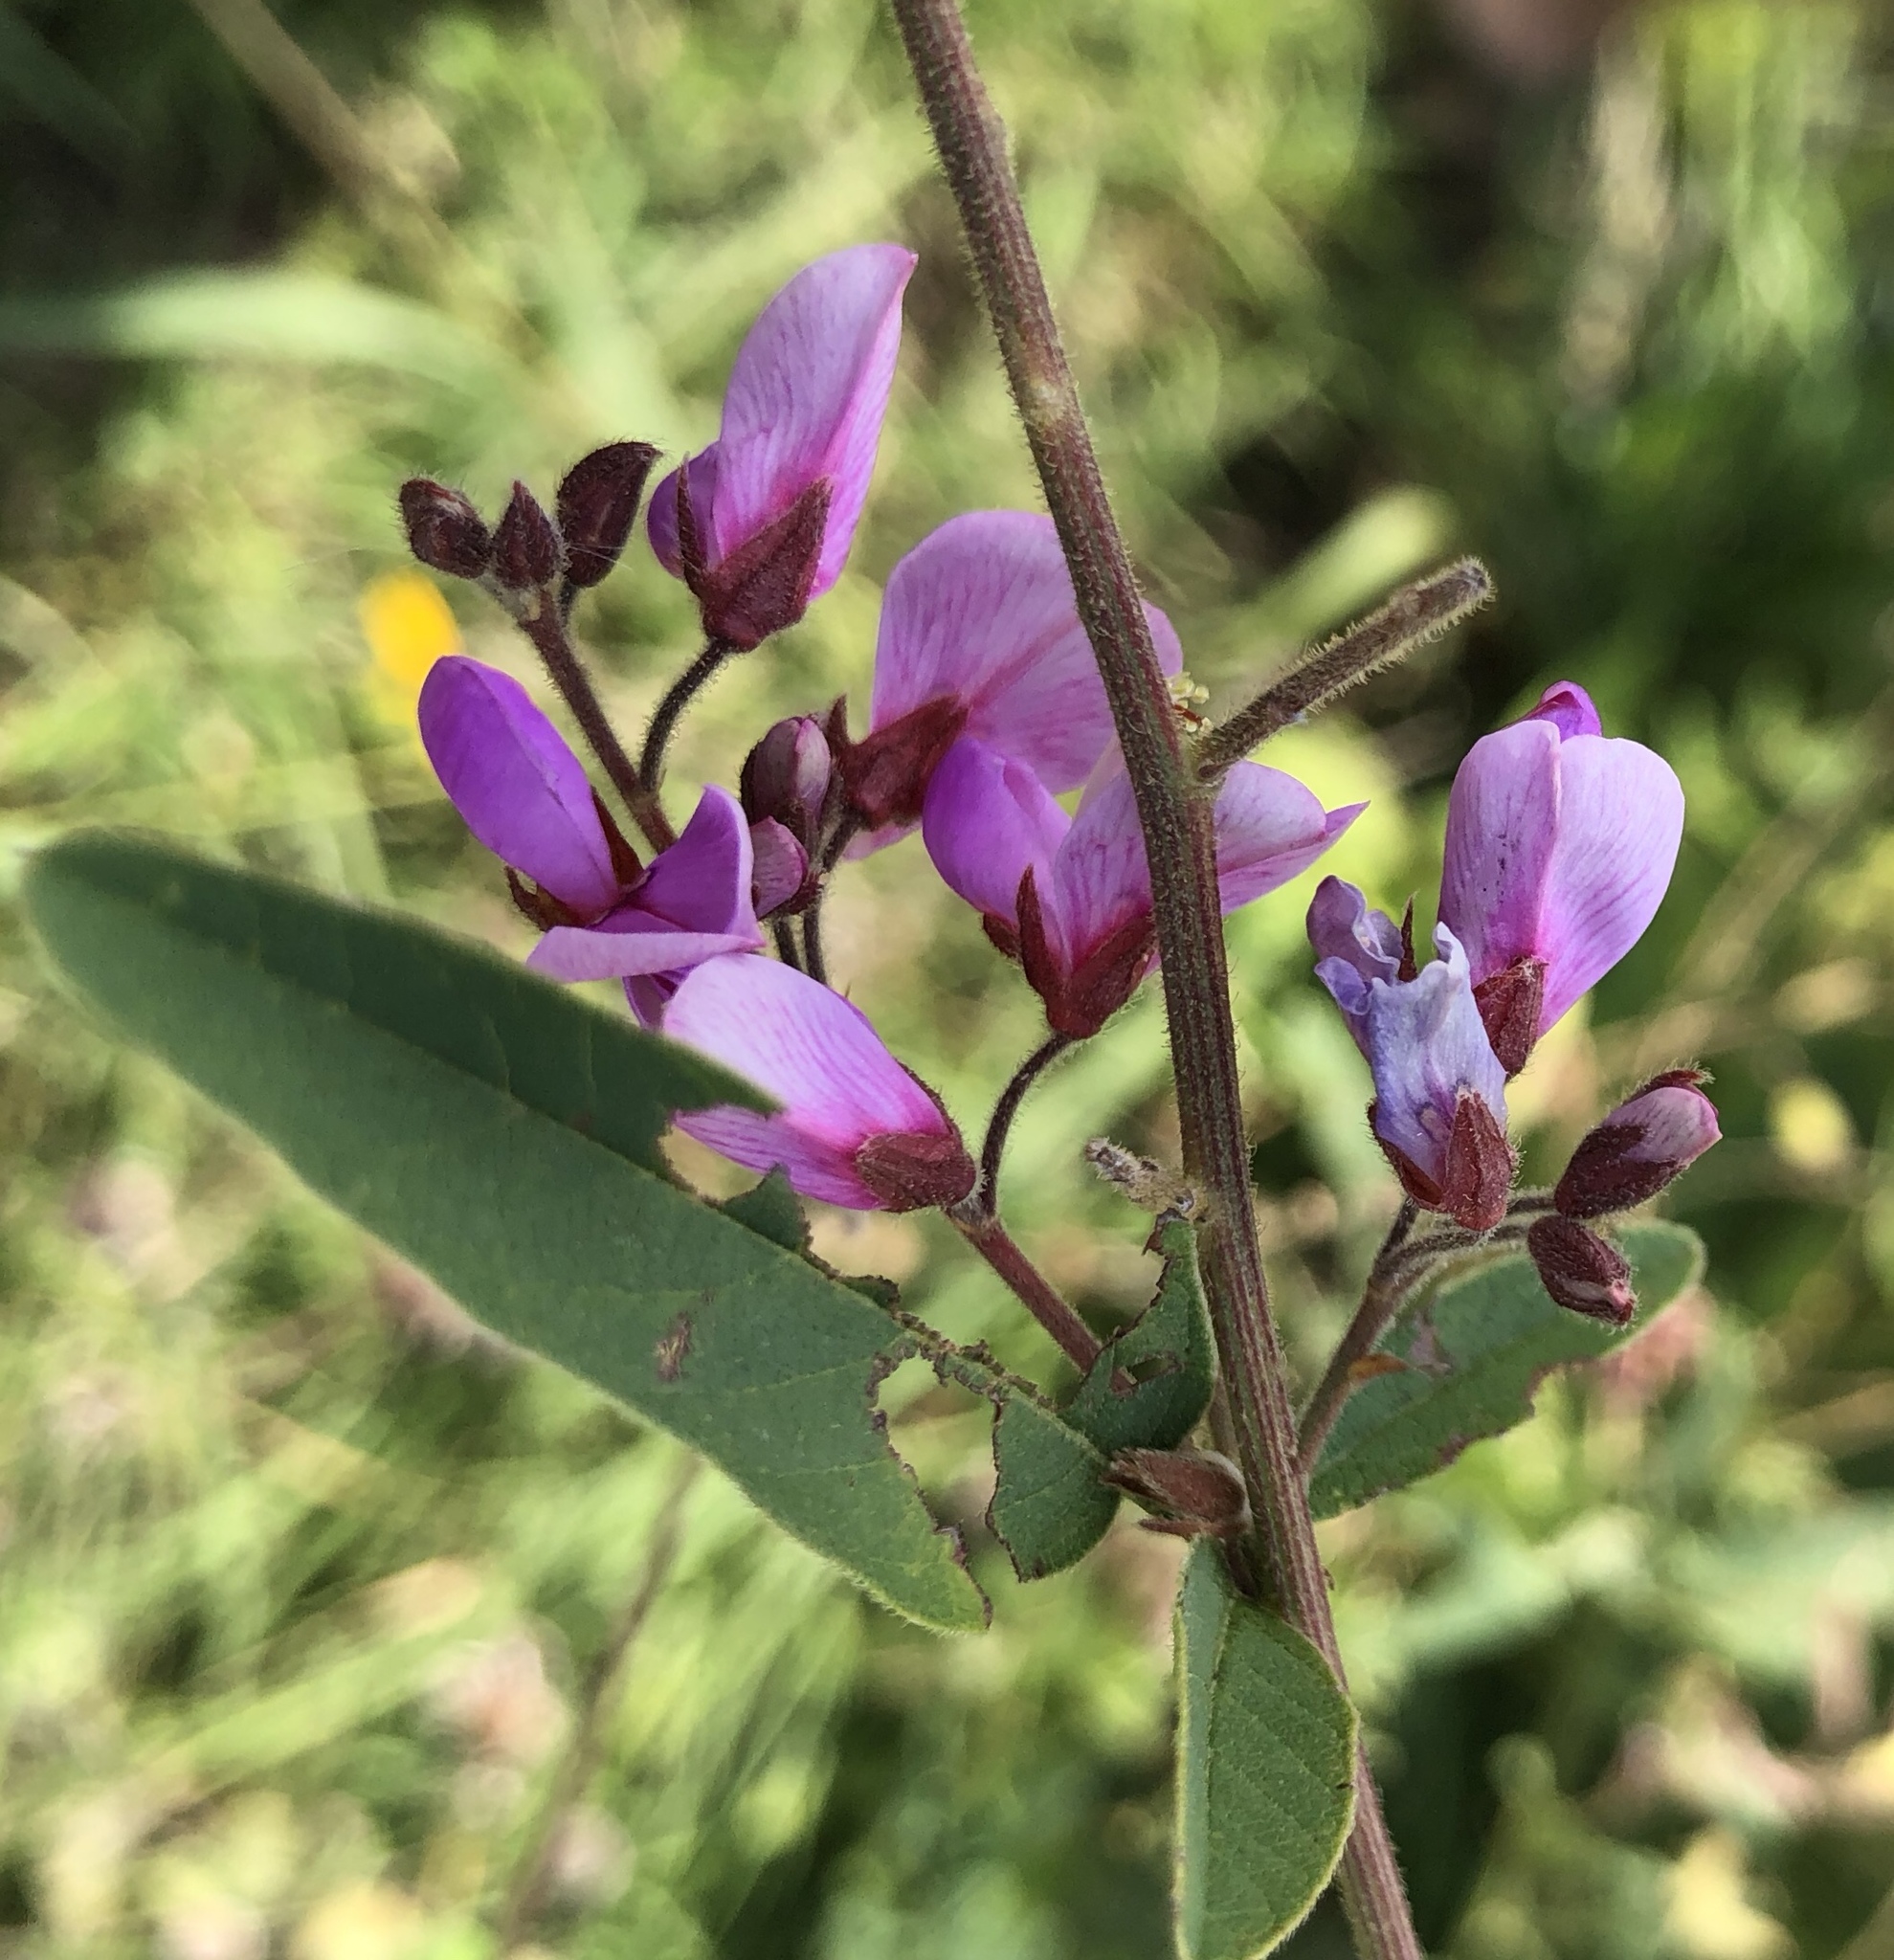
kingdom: Plantae
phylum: Tracheophyta
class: Magnoliopsida
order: Fabales
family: Fabaceae
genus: Desmodium
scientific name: Desmodium canadense
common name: Canada tick-trefoil
